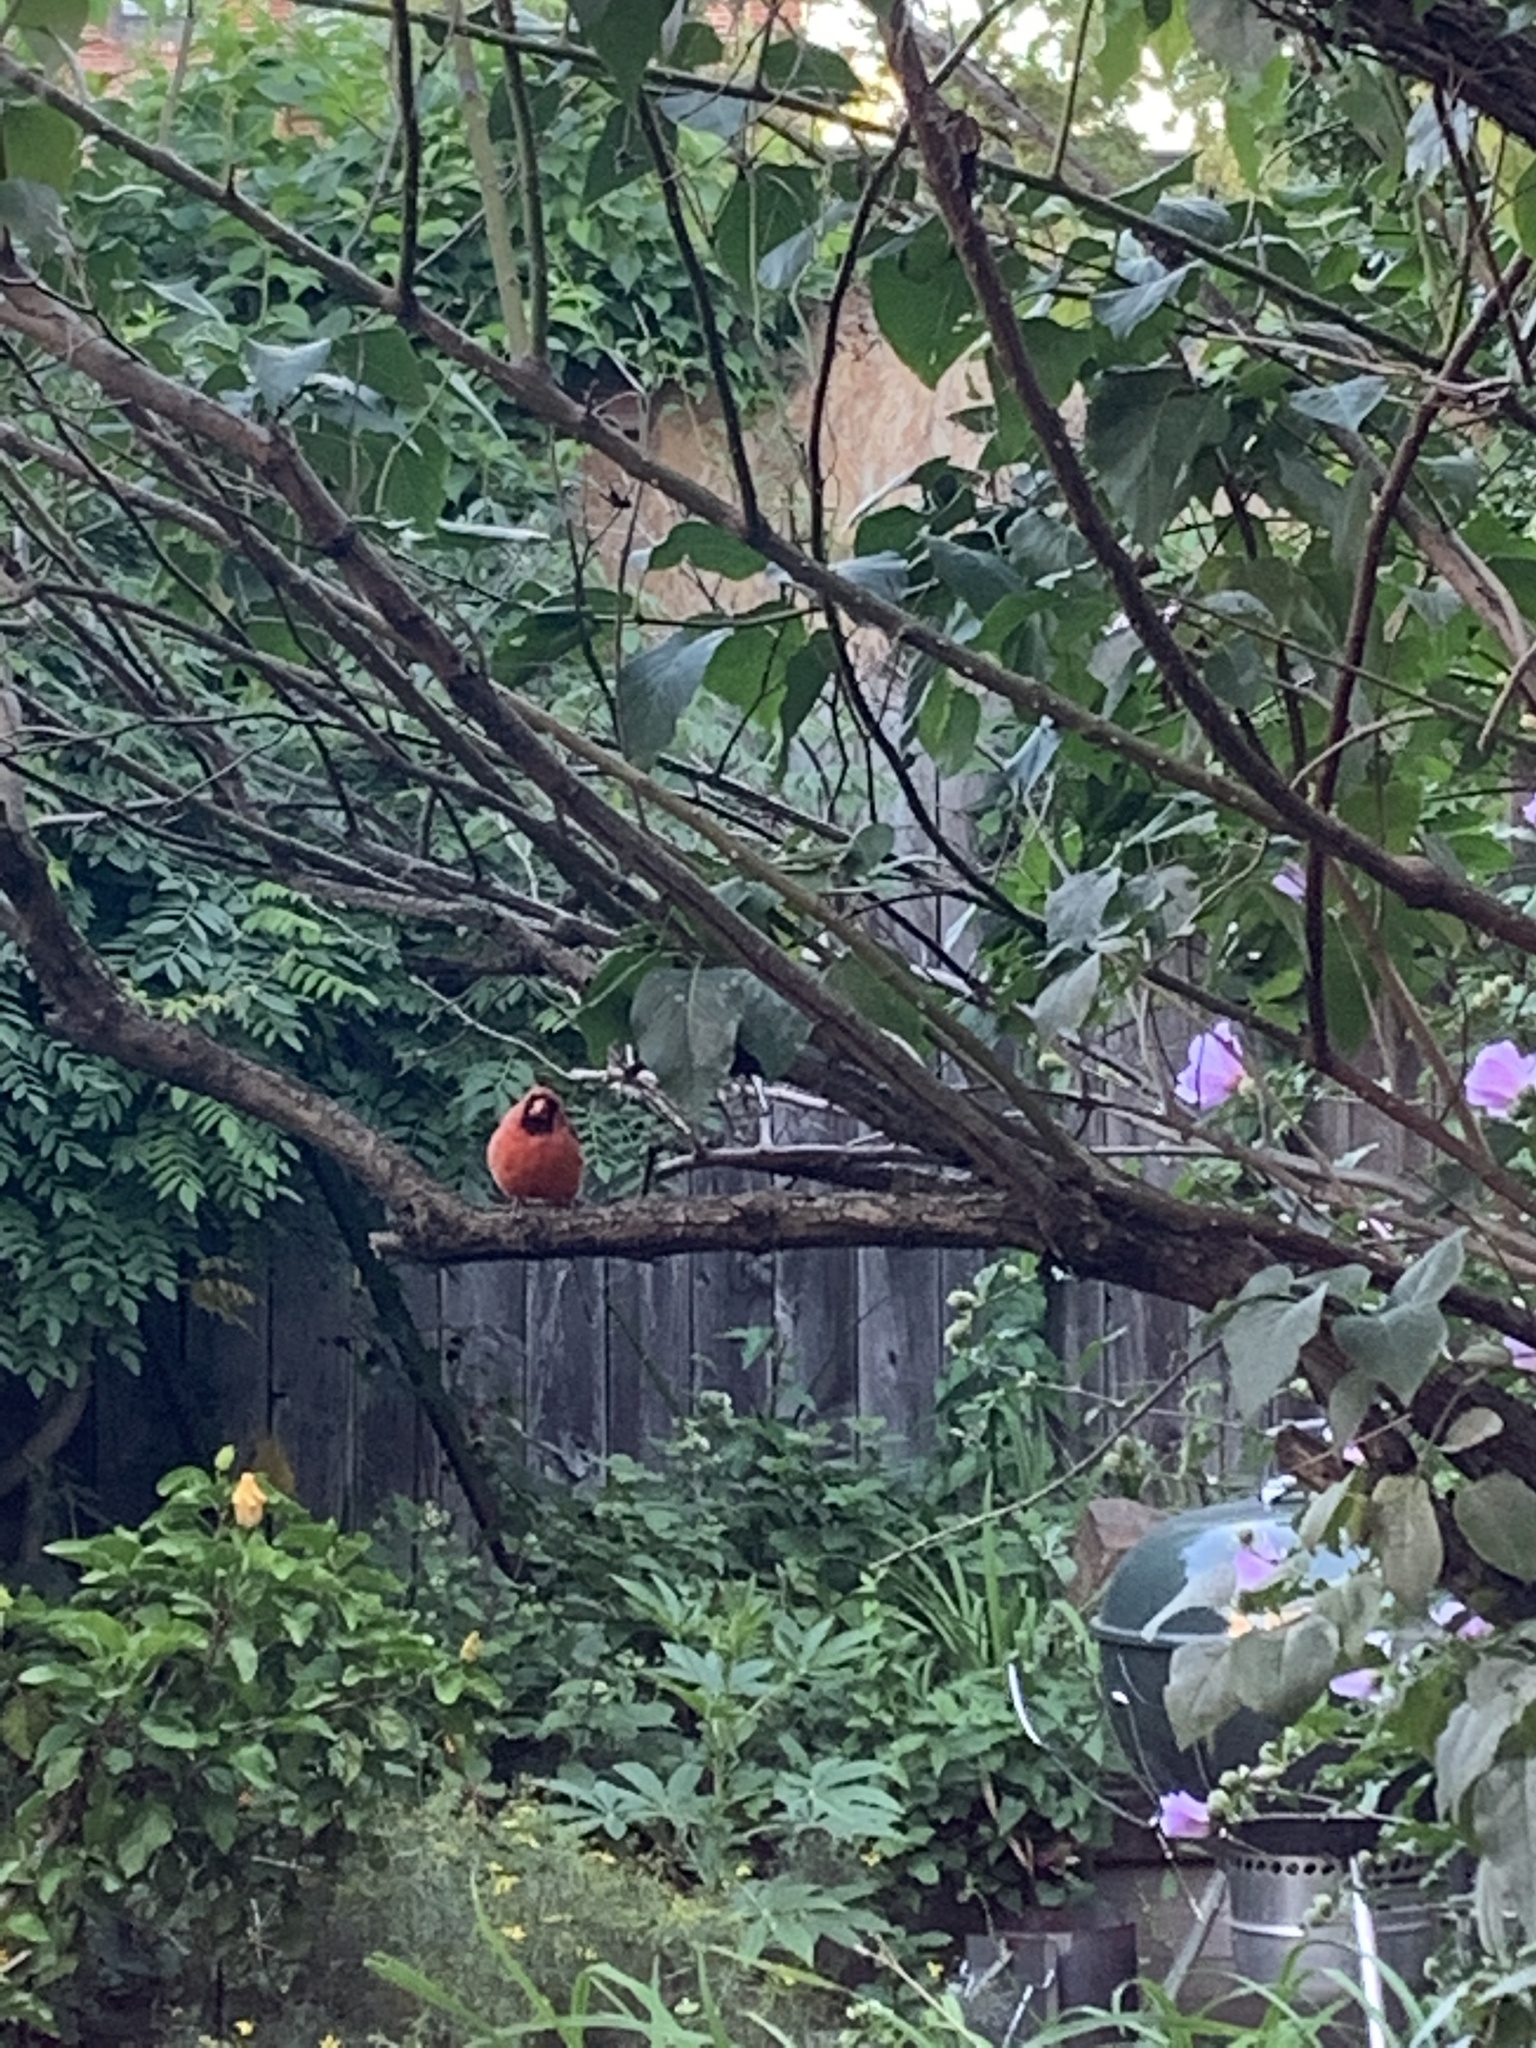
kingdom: Animalia
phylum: Chordata
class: Aves
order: Passeriformes
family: Cardinalidae
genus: Cardinalis
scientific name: Cardinalis cardinalis
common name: Northern cardinal
